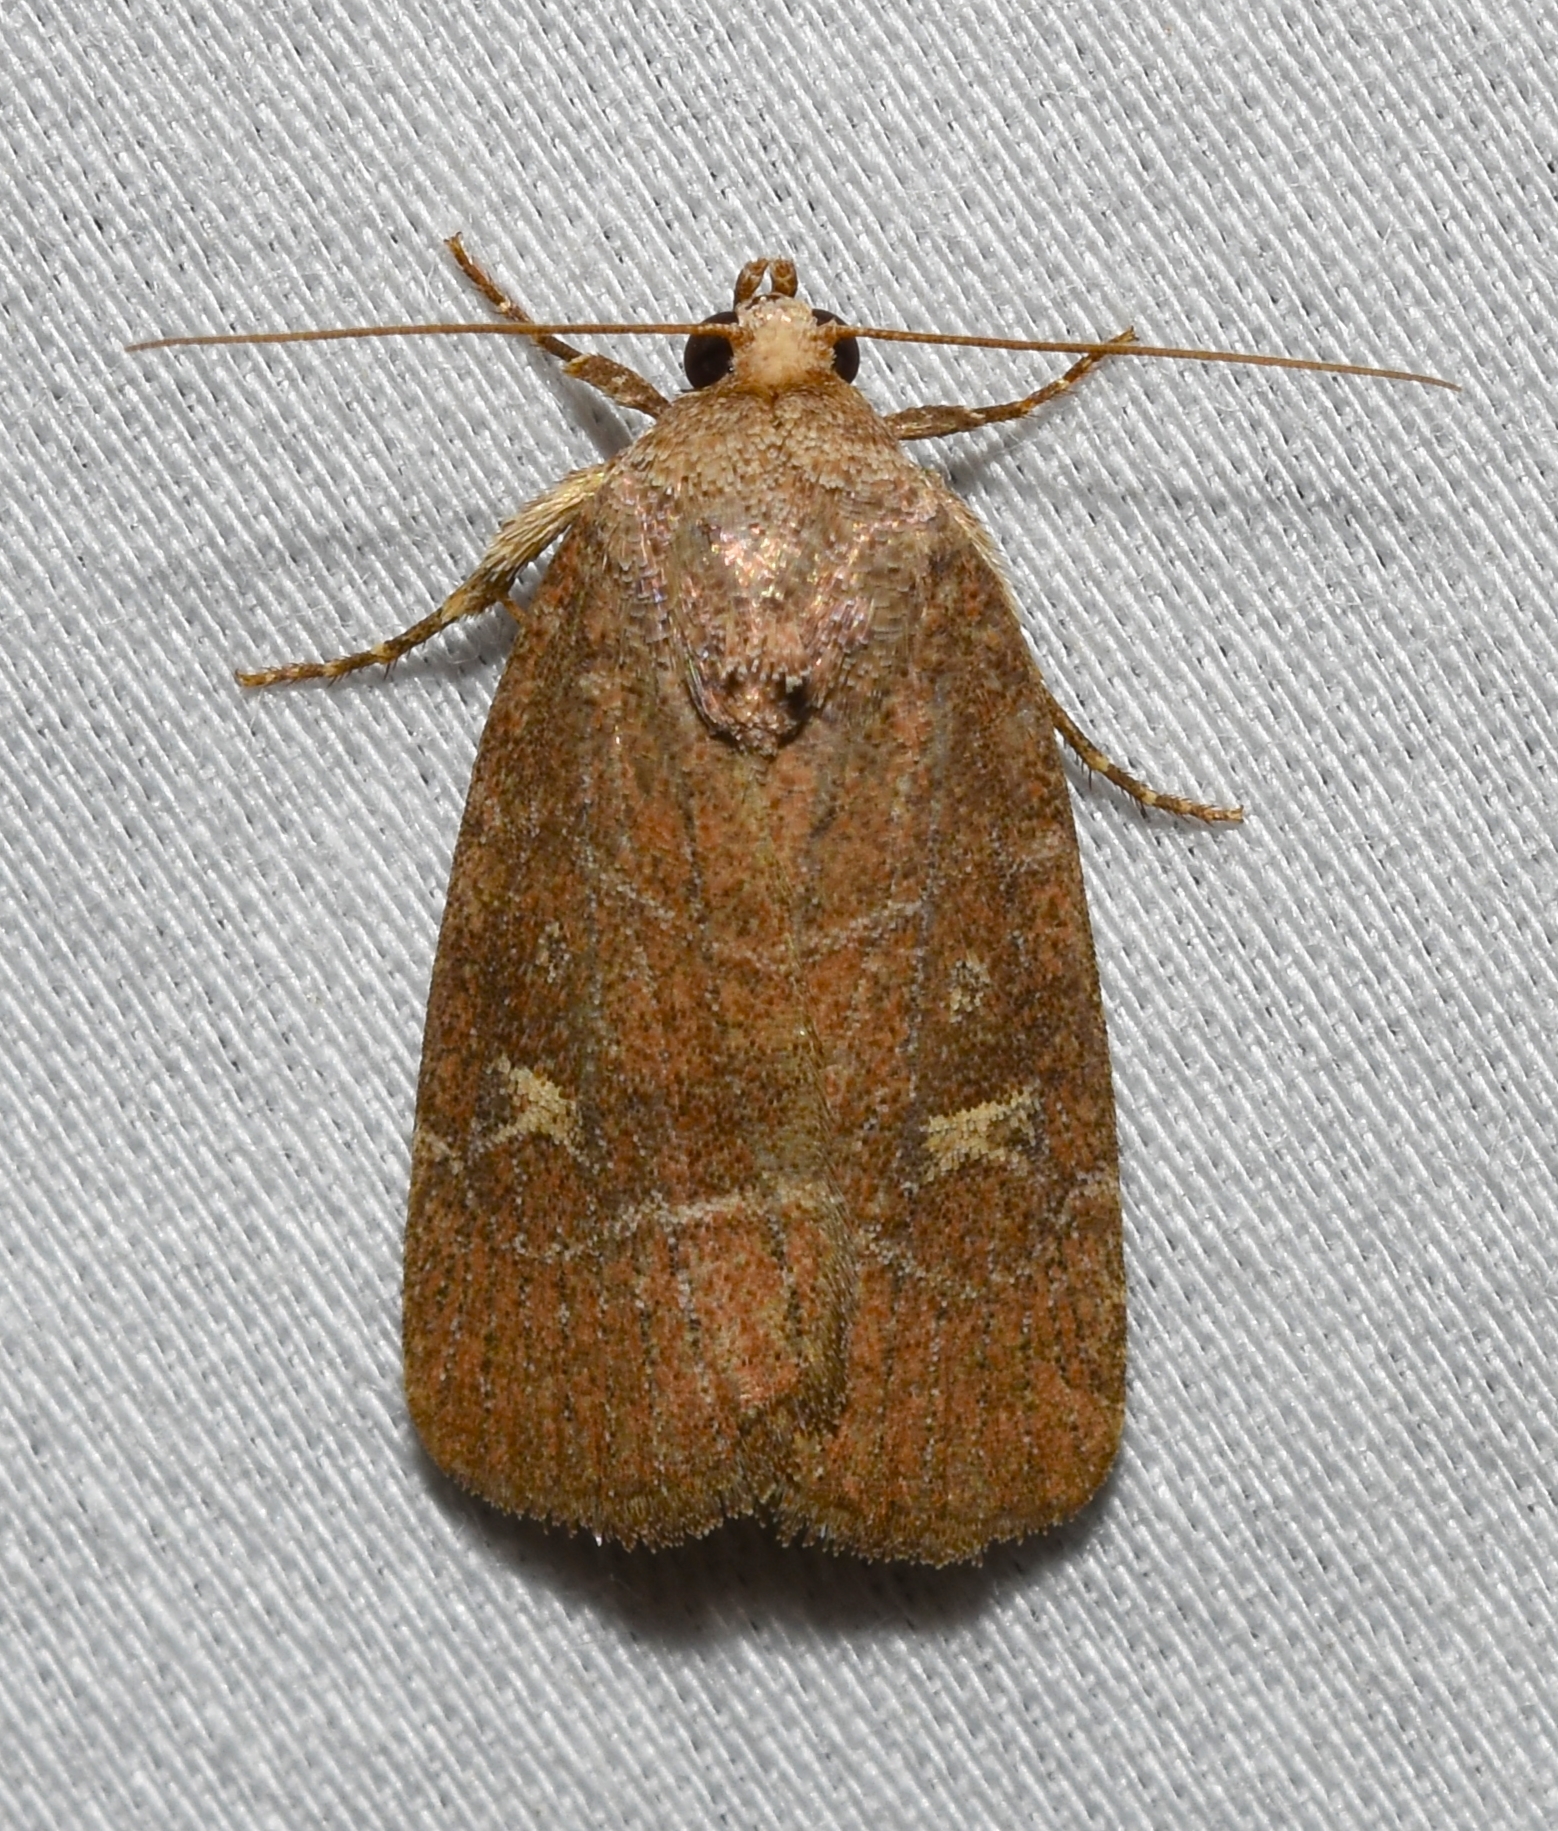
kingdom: Animalia
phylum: Arthropoda
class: Insecta
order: Lepidoptera
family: Noctuidae
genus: Elaphria
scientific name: Elaphria grata
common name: Grateful midget moth
